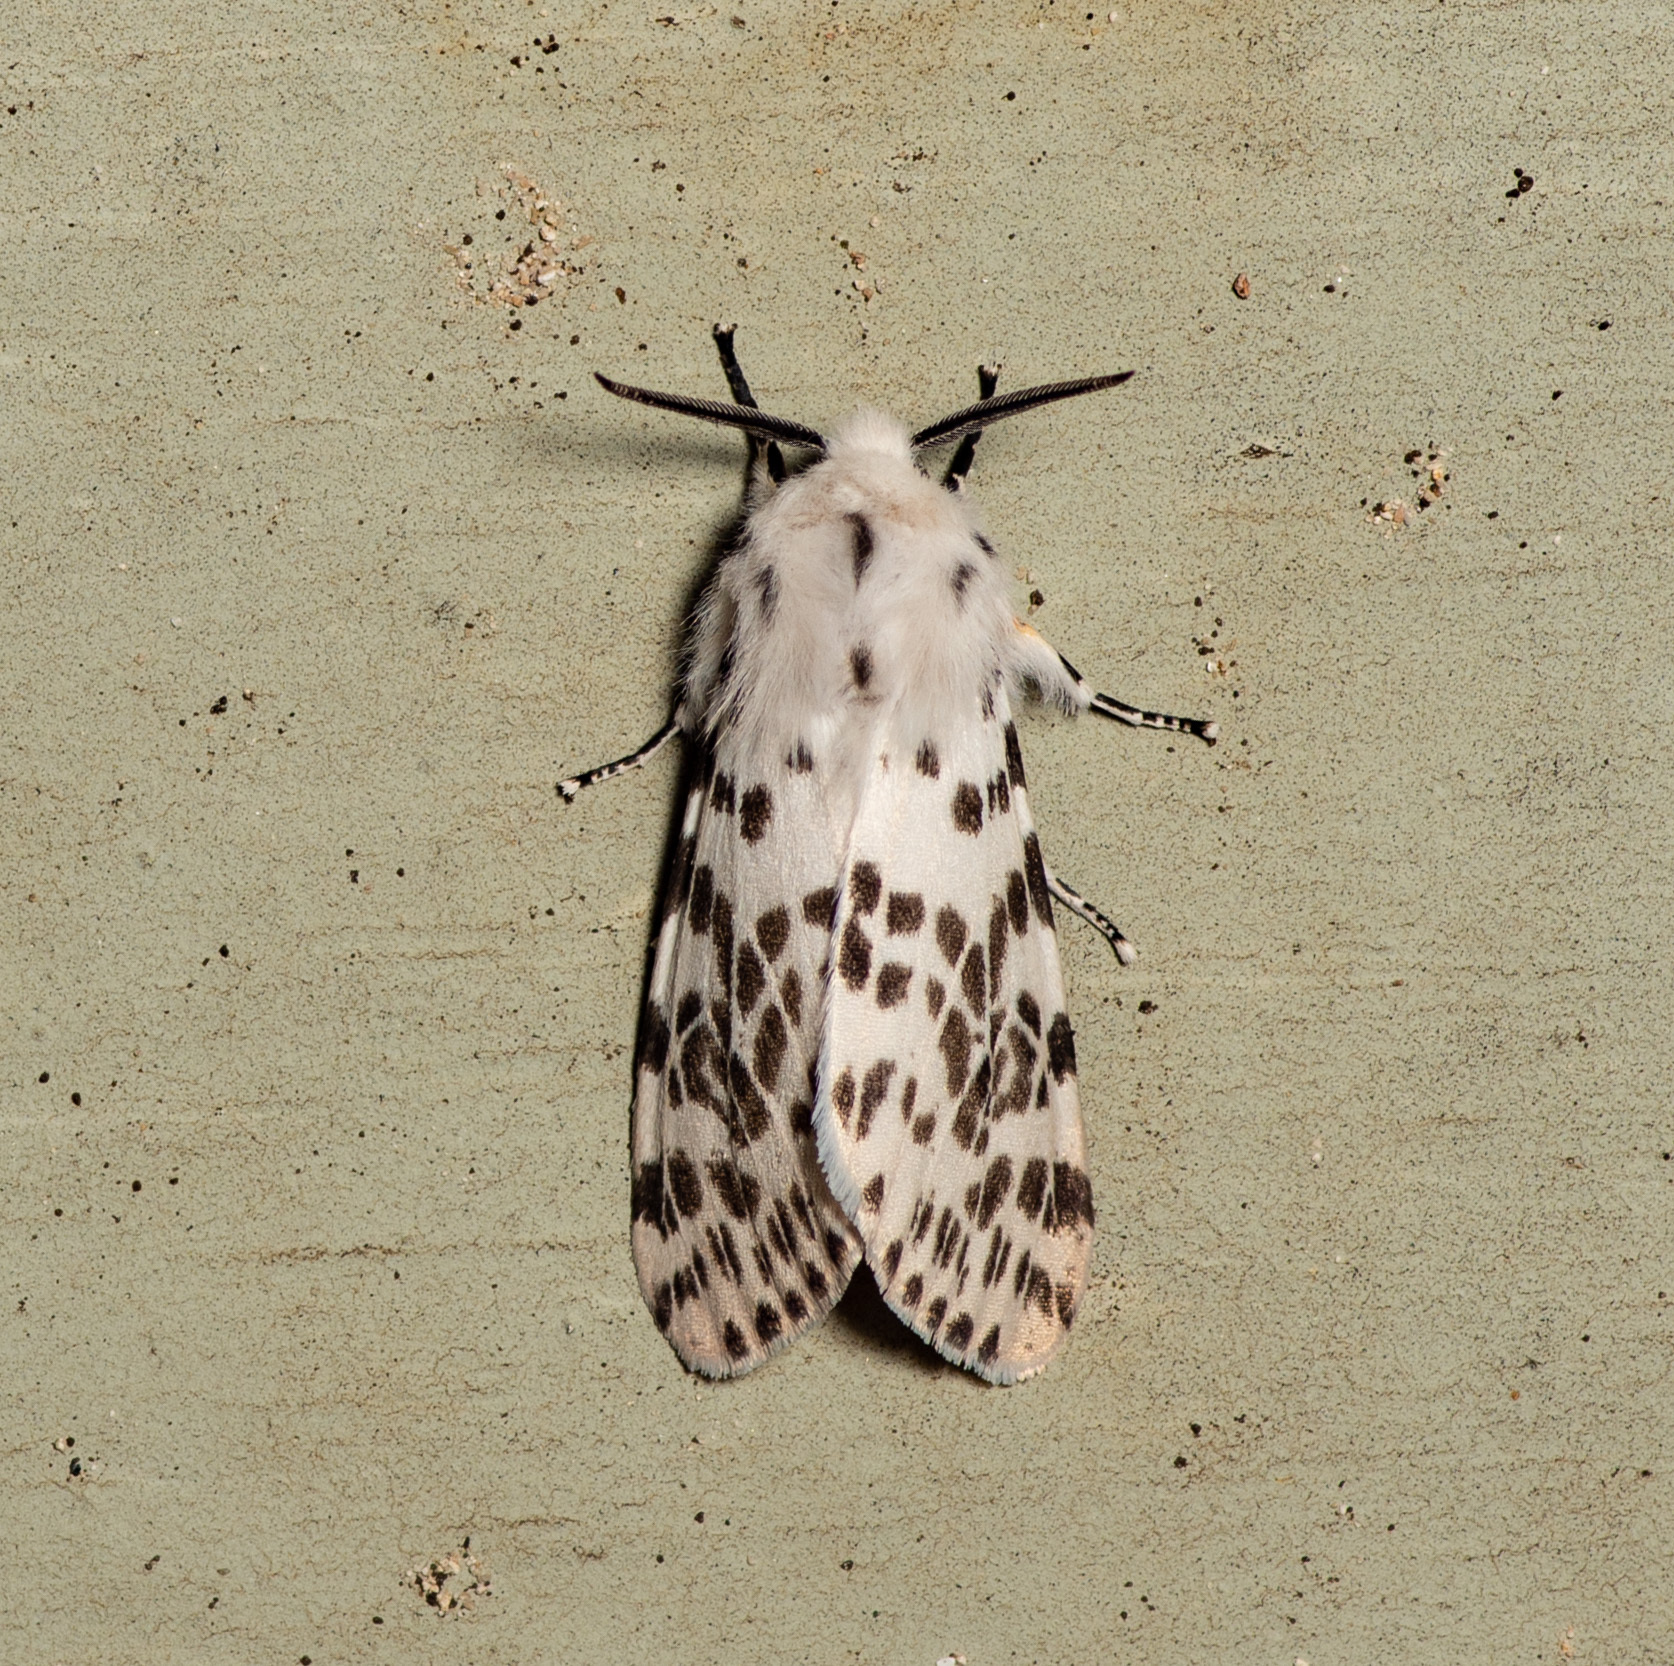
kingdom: Animalia
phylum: Arthropoda
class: Insecta
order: Lepidoptera
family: Erebidae
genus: Hyphantria
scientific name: Hyphantria cunea
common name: American white moth
